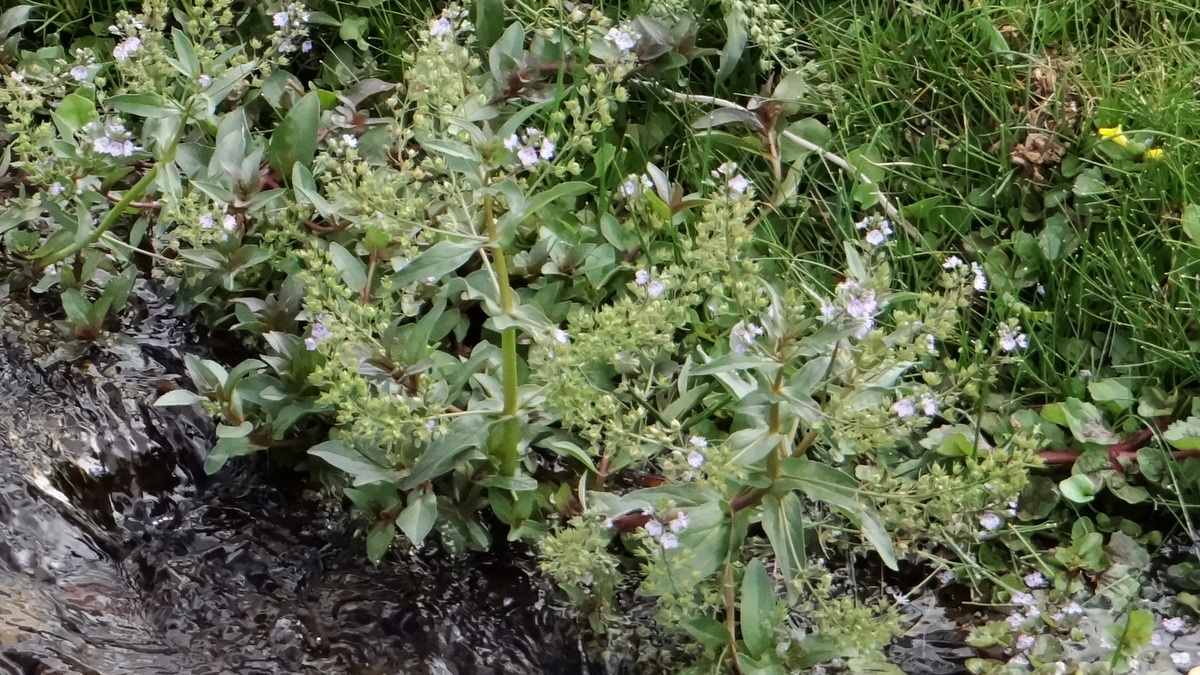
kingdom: Plantae
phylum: Tracheophyta
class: Magnoliopsida
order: Lamiales
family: Plantaginaceae
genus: Veronica
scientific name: Veronica anagallis-aquatica
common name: Water speedwell
